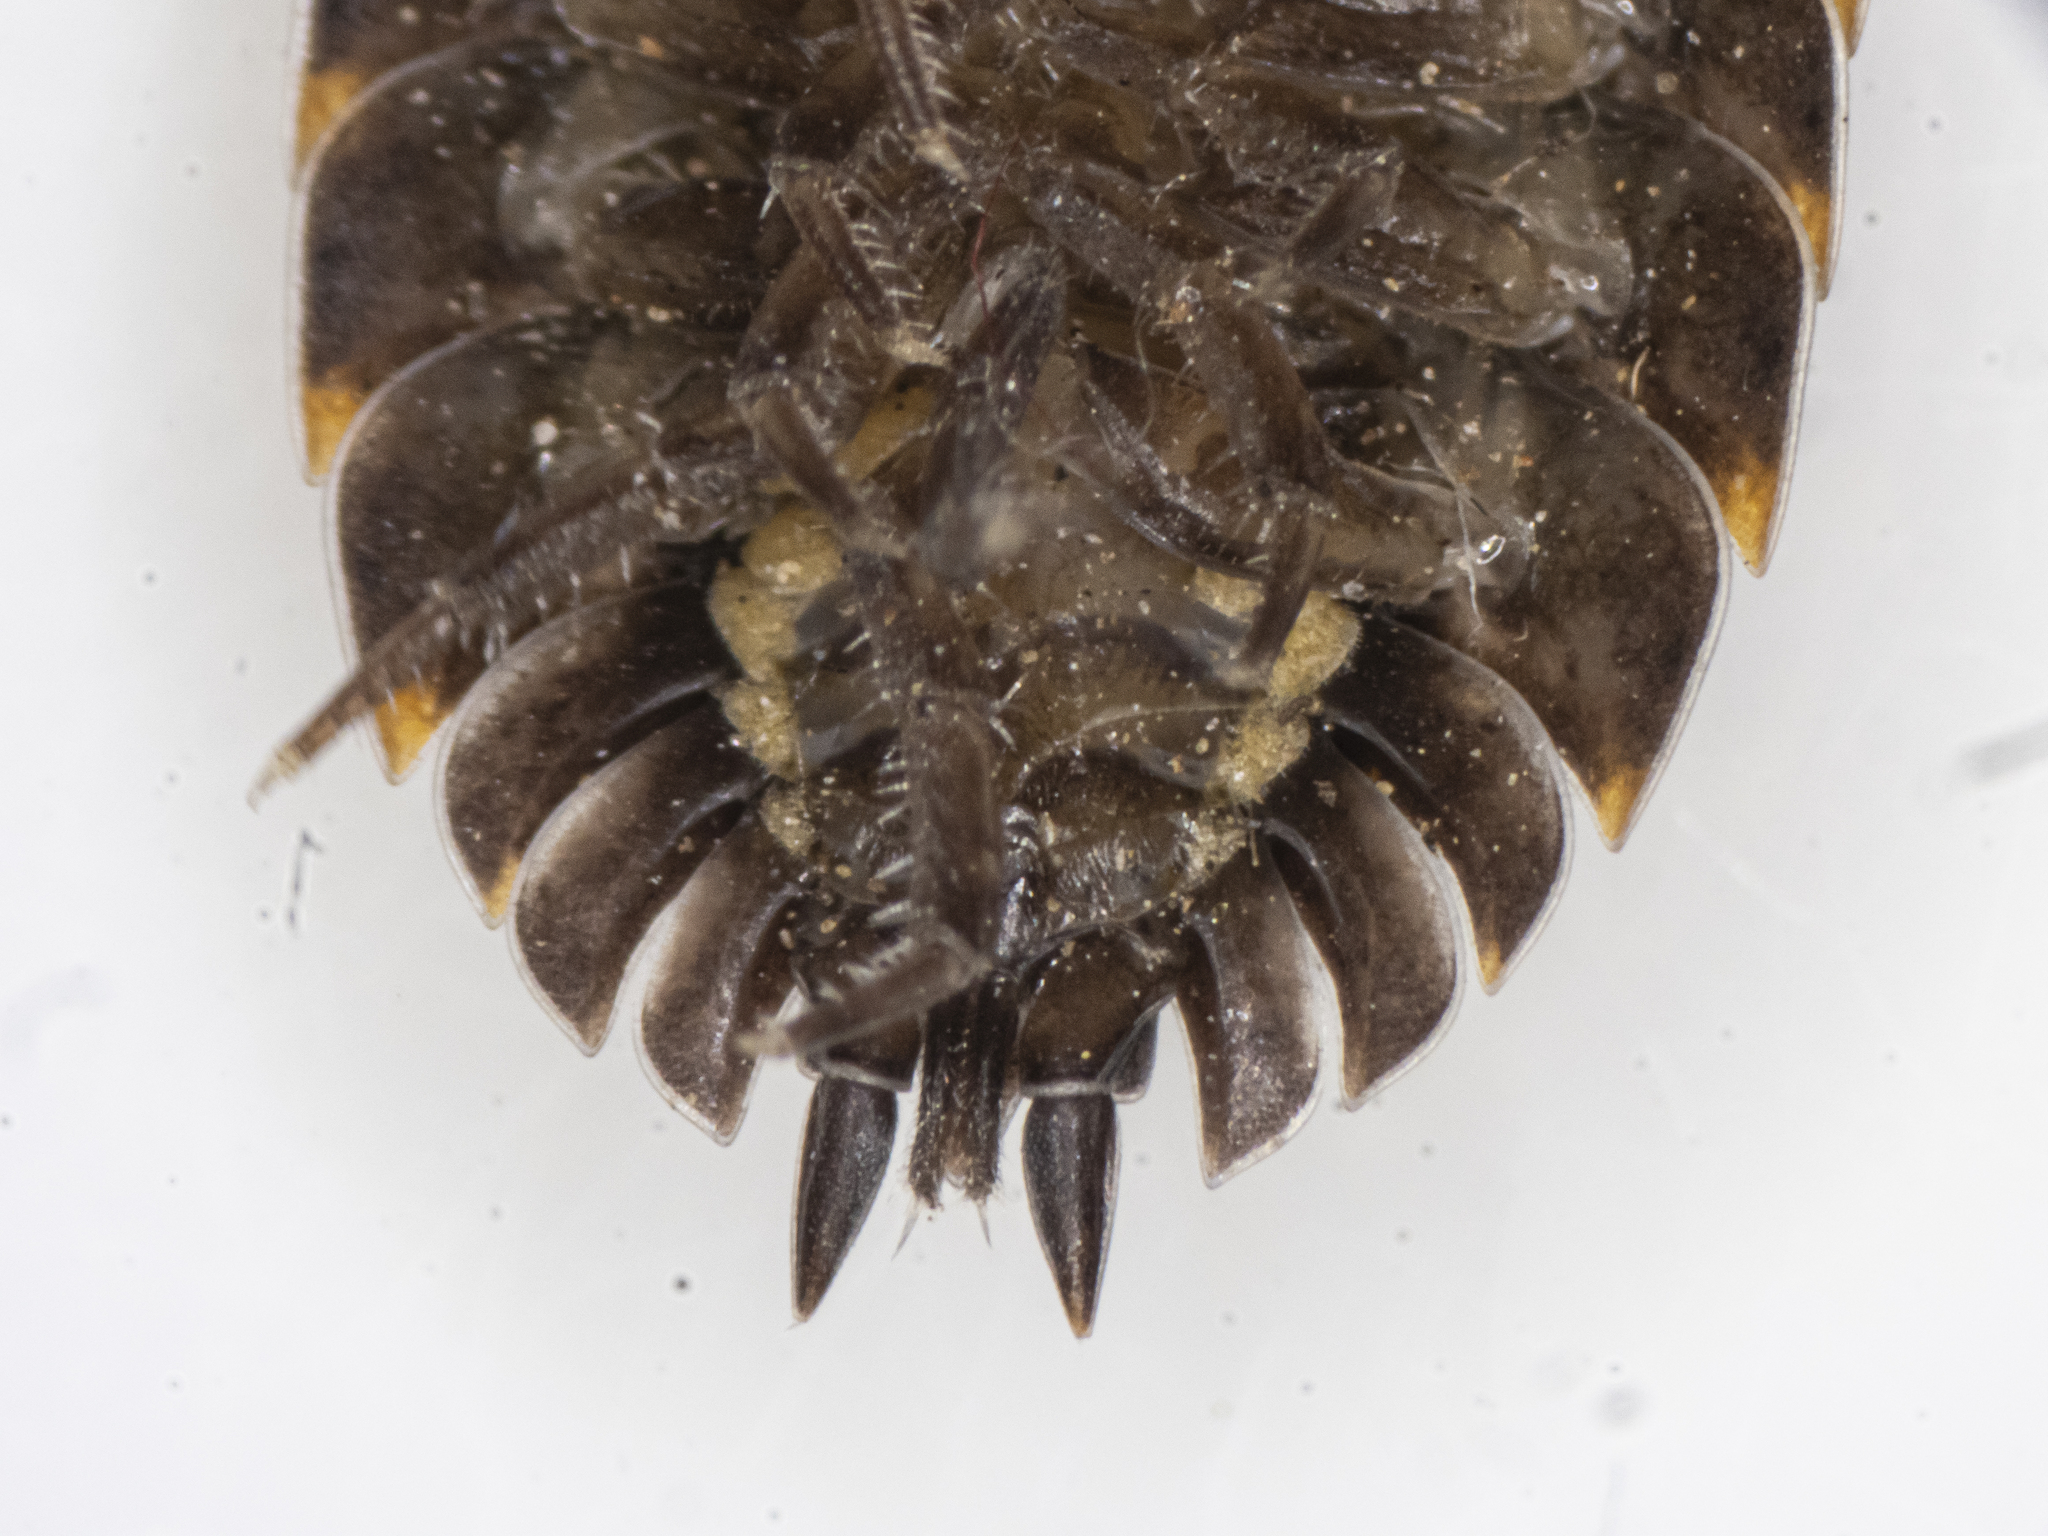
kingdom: Animalia
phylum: Arthropoda
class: Malacostraca
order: Isopoda
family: Trachelipodidae
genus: Trachelipus
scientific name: Trachelipus ratzeburgii
